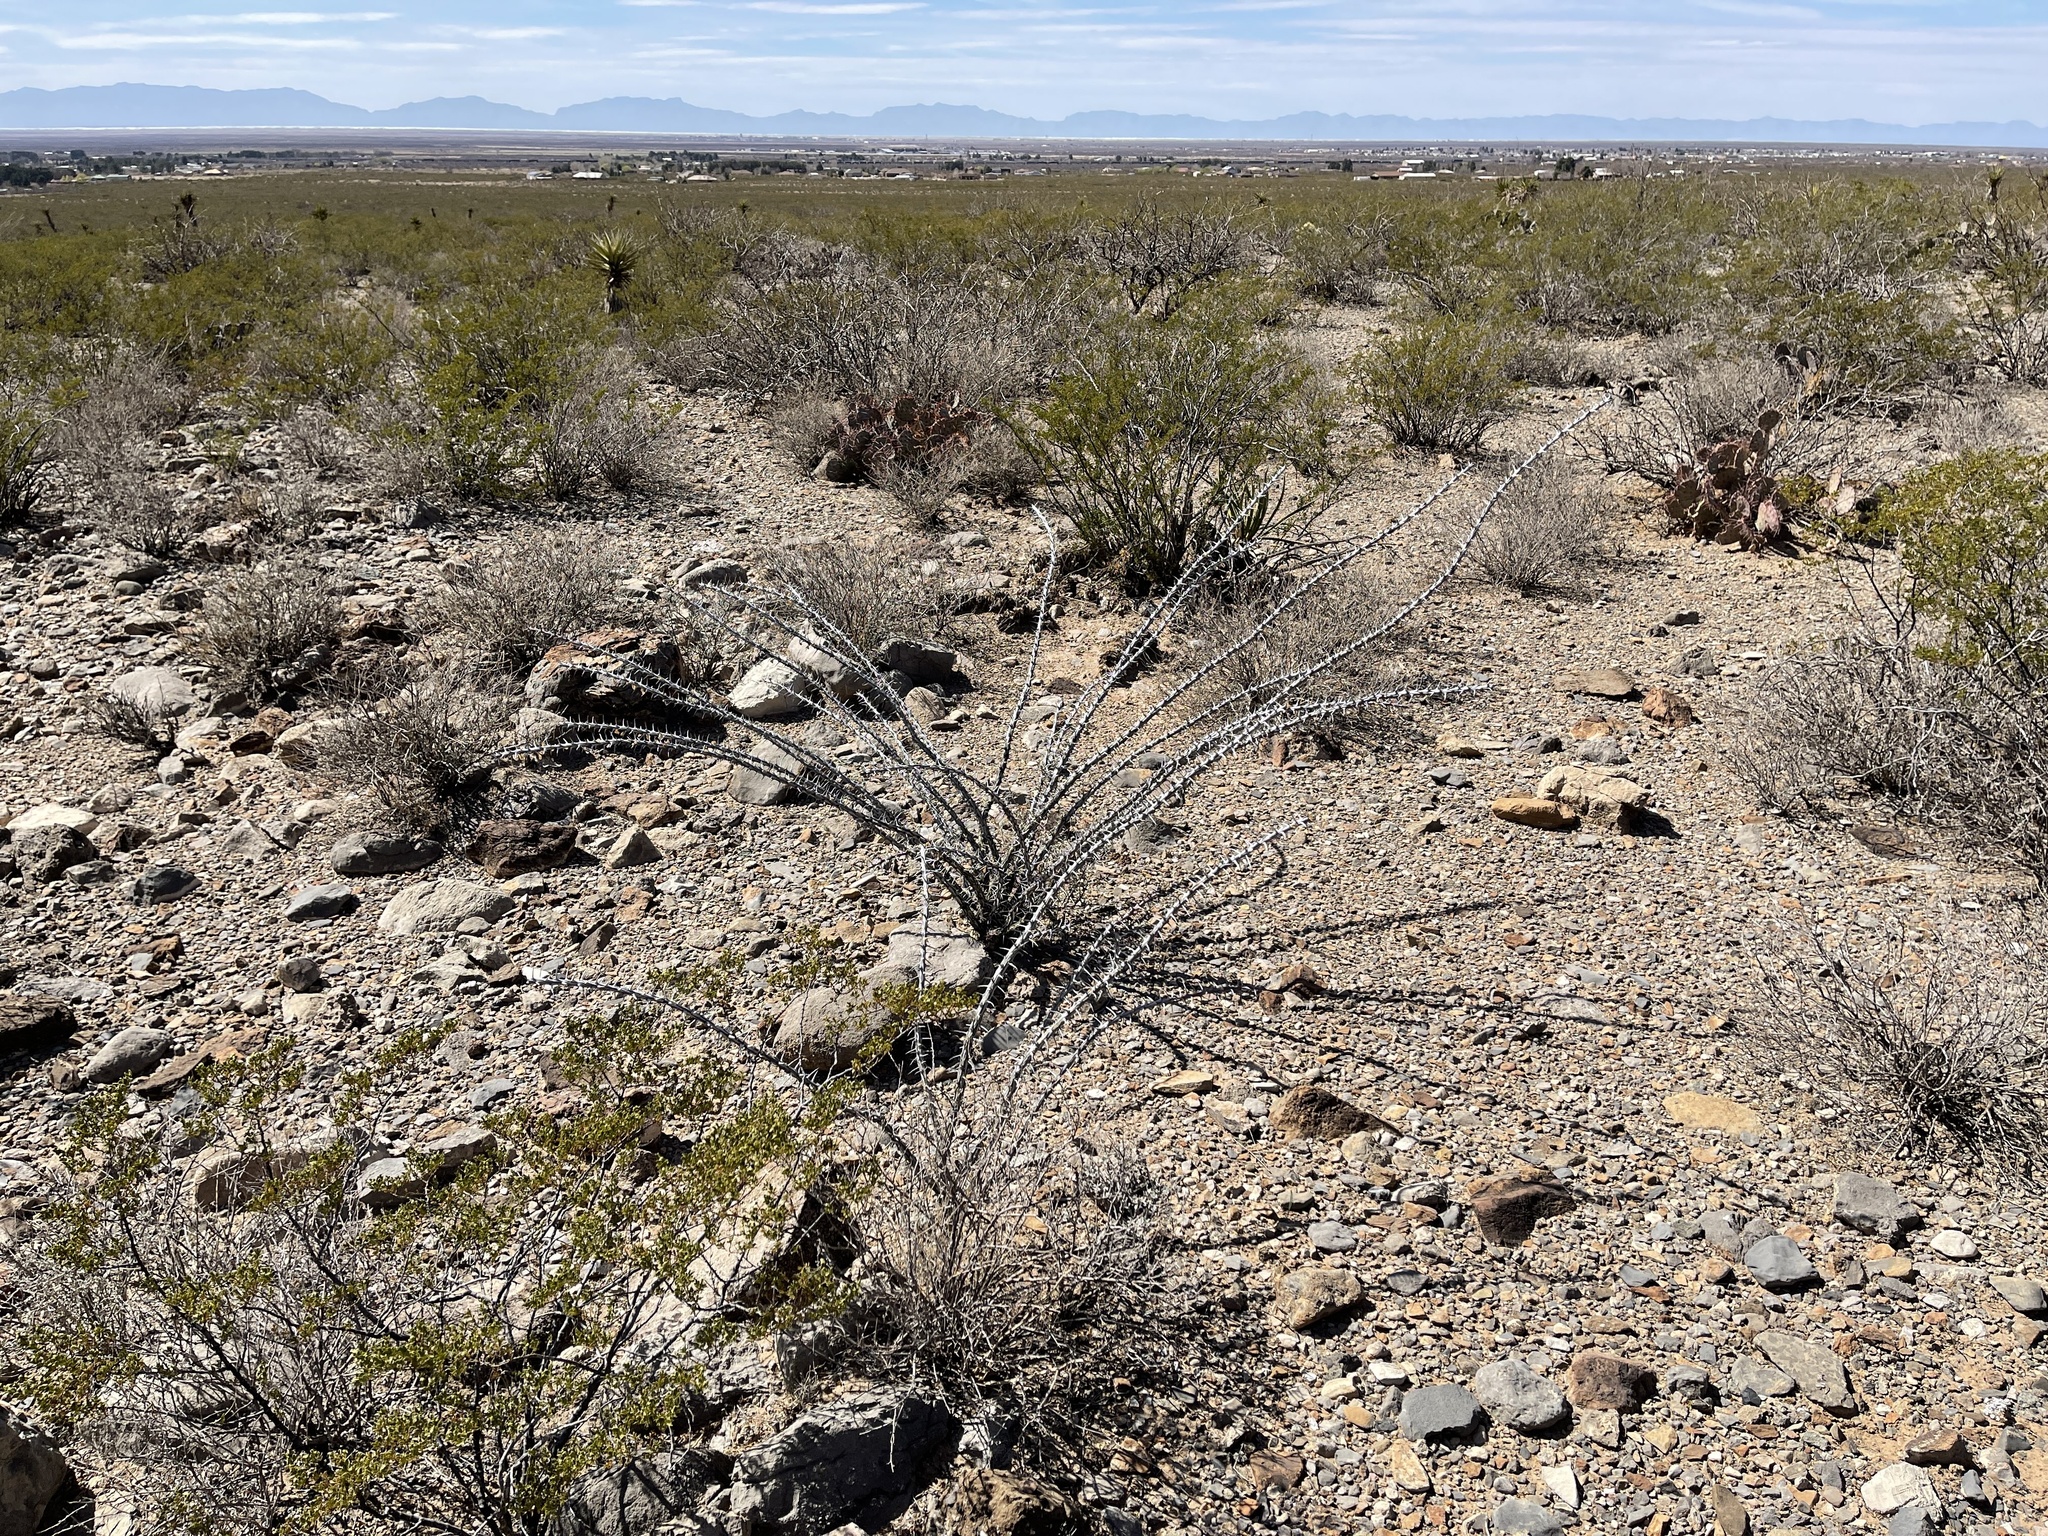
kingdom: Plantae
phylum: Tracheophyta
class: Magnoliopsida
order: Ericales
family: Fouquieriaceae
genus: Fouquieria
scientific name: Fouquieria splendens
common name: Vine-cactus
